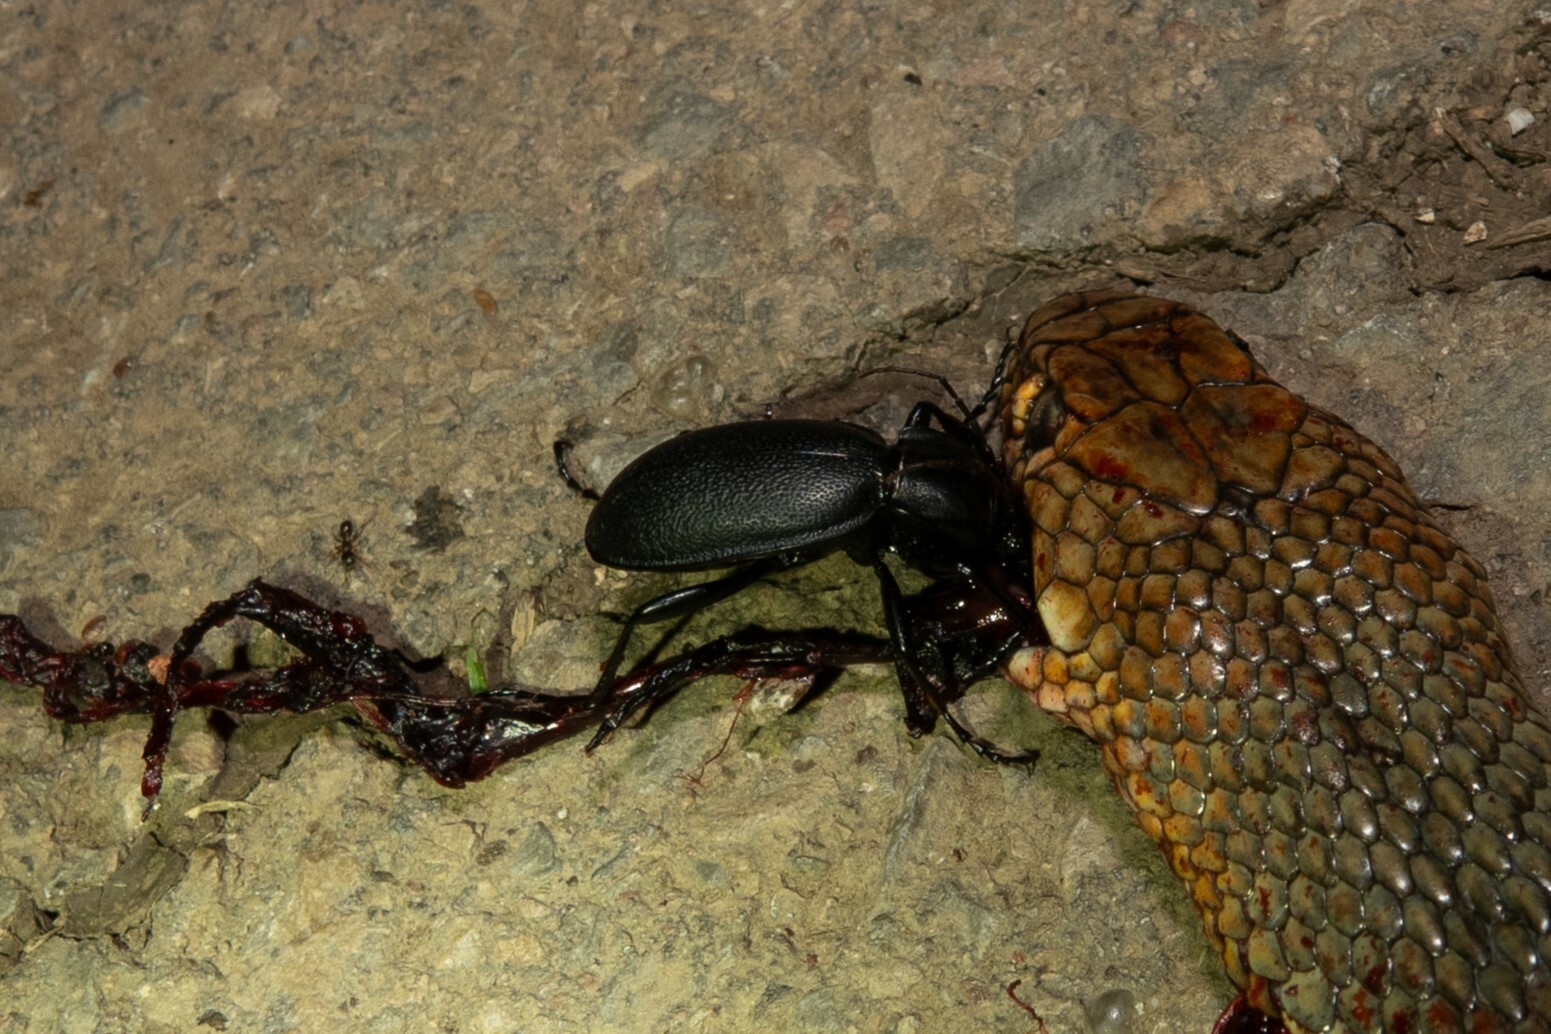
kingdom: Animalia
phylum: Arthropoda
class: Insecta
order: Coleoptera
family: Carabidae
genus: Carabus
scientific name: Carabus coriaceus
